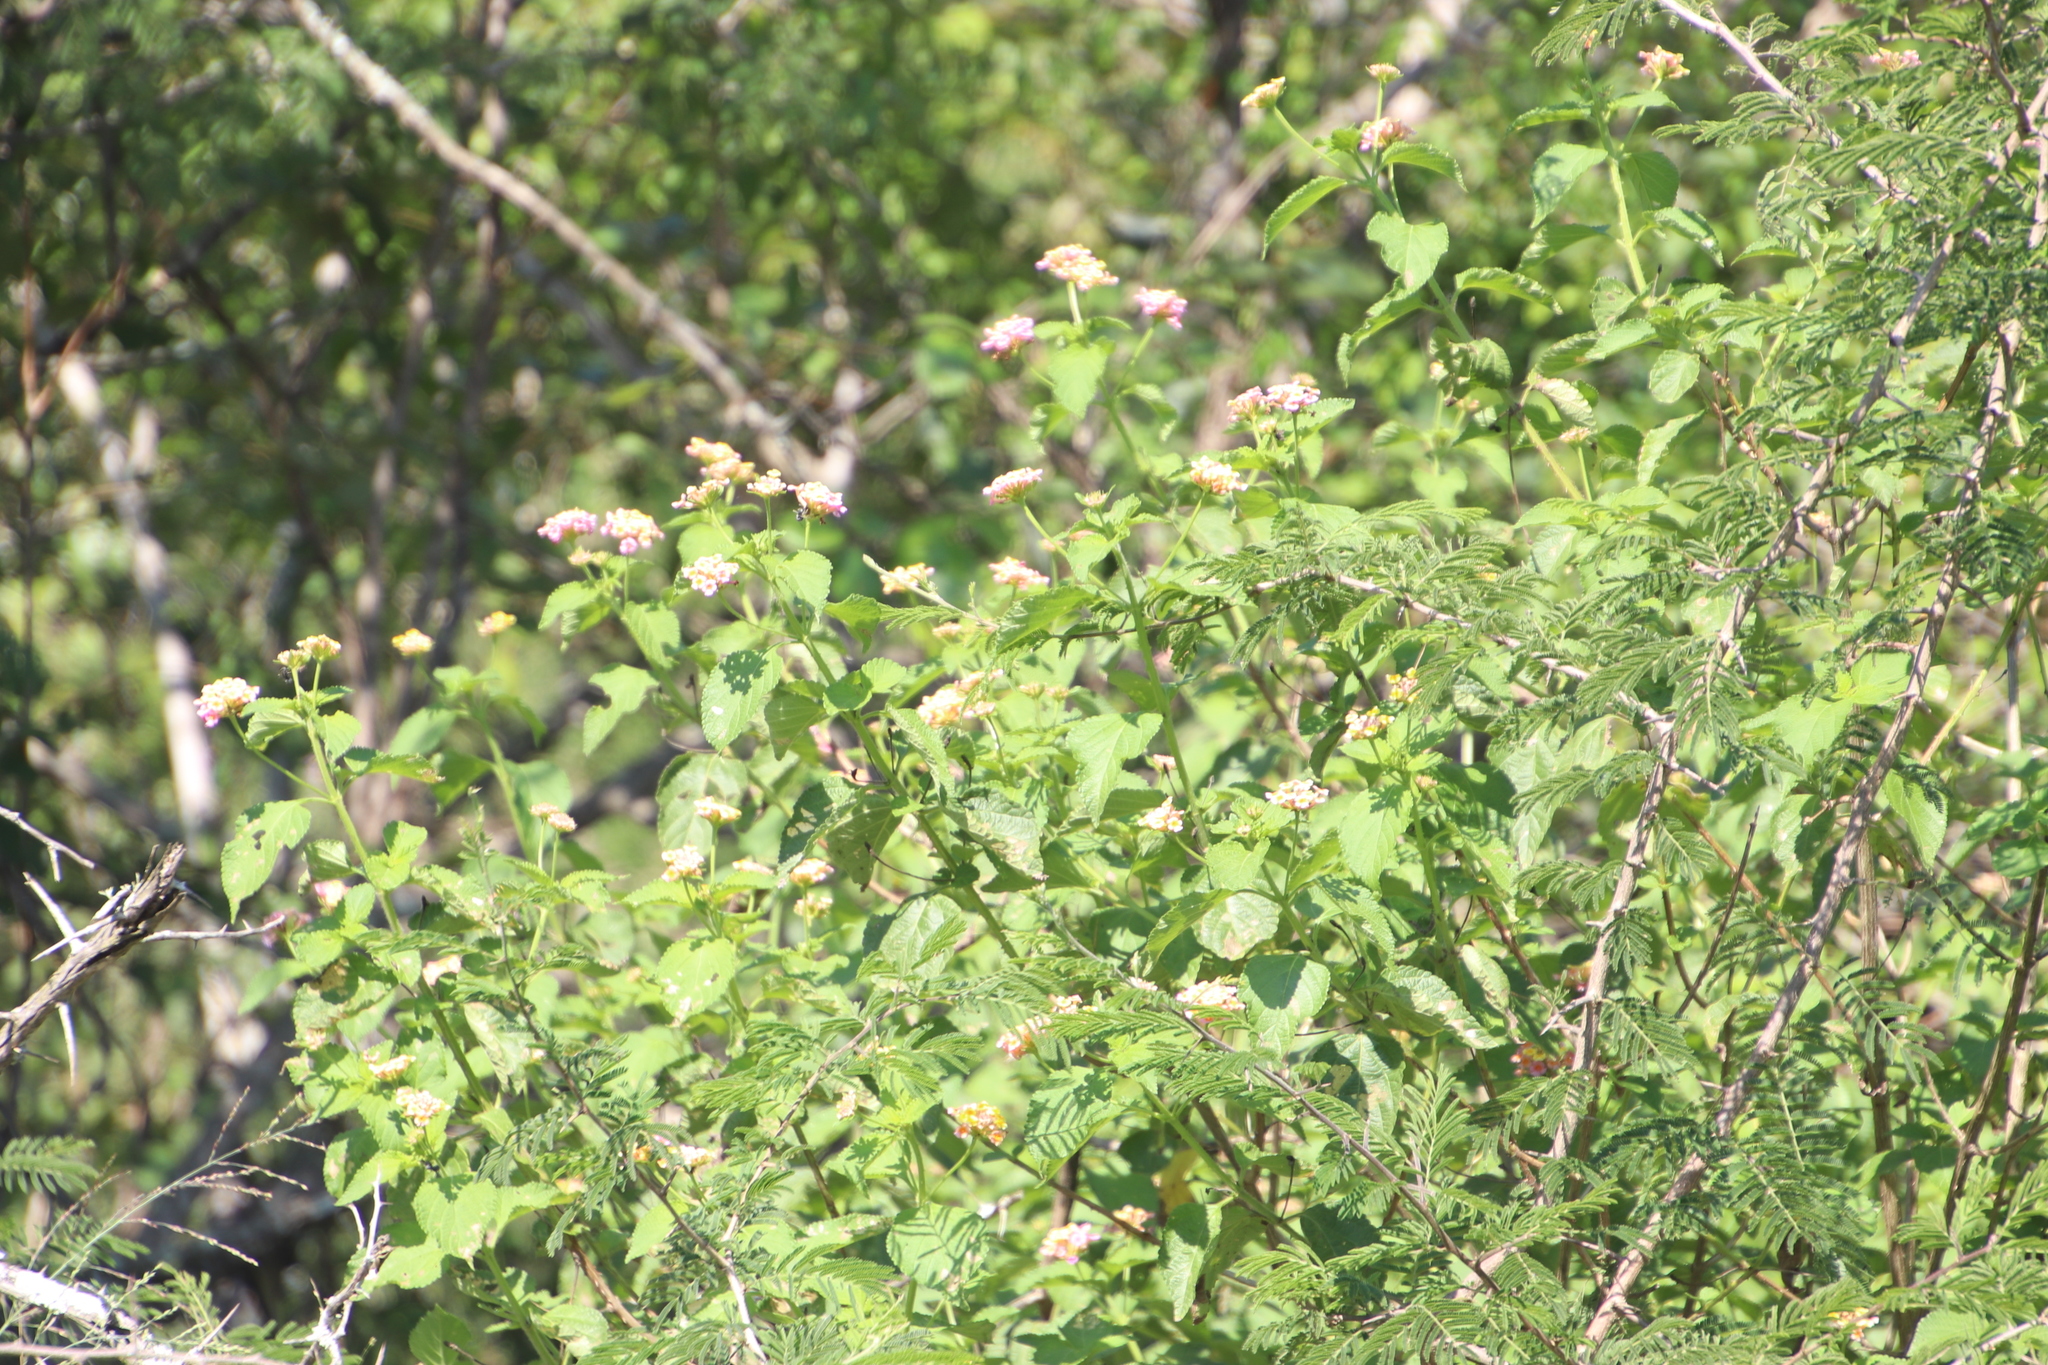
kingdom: Plantae
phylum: Tracheophyta
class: Magnoliopsida
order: Lamiales
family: Verbenaceae
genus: Lantana
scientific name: Lantana camara
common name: Lantana
